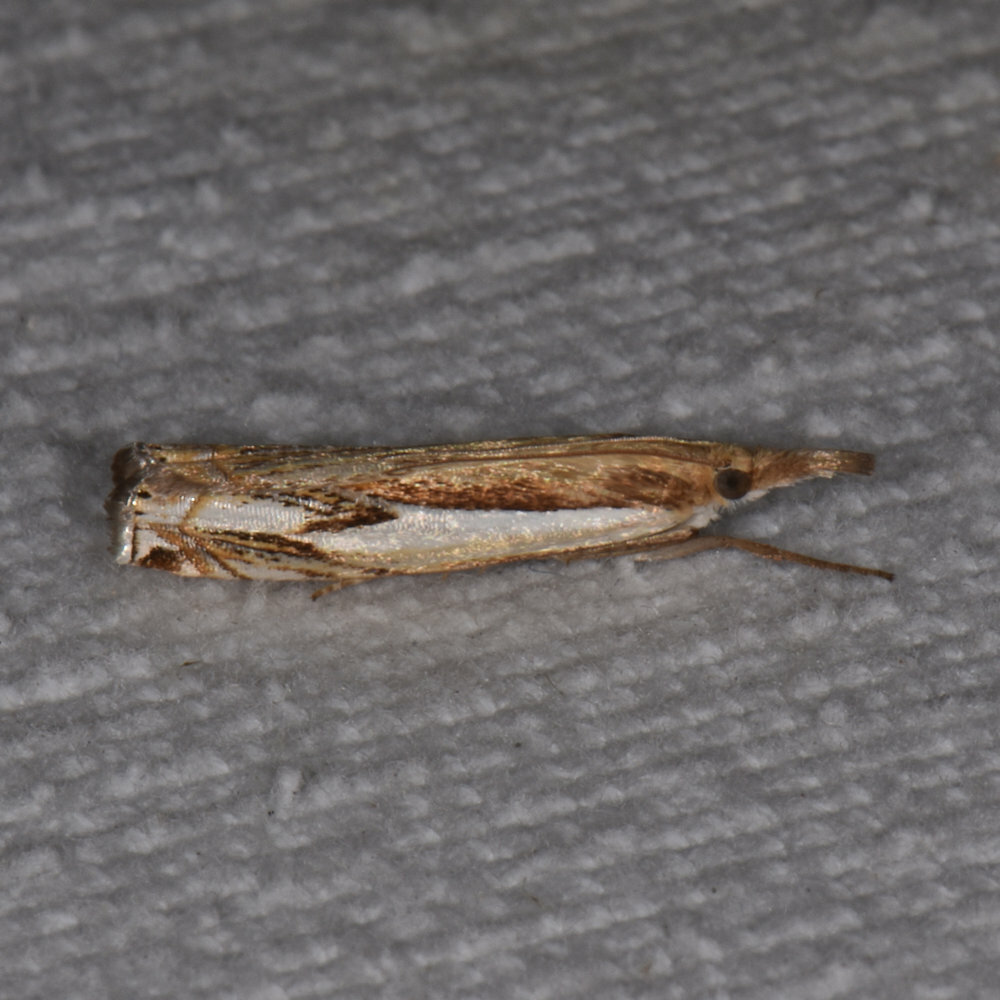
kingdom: Animalia
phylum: Arthropoda
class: Insecta
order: Lepidoptera
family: Crambidae
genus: Crambus
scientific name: Crambus agitatellus
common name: Double-banded grass-veneer
